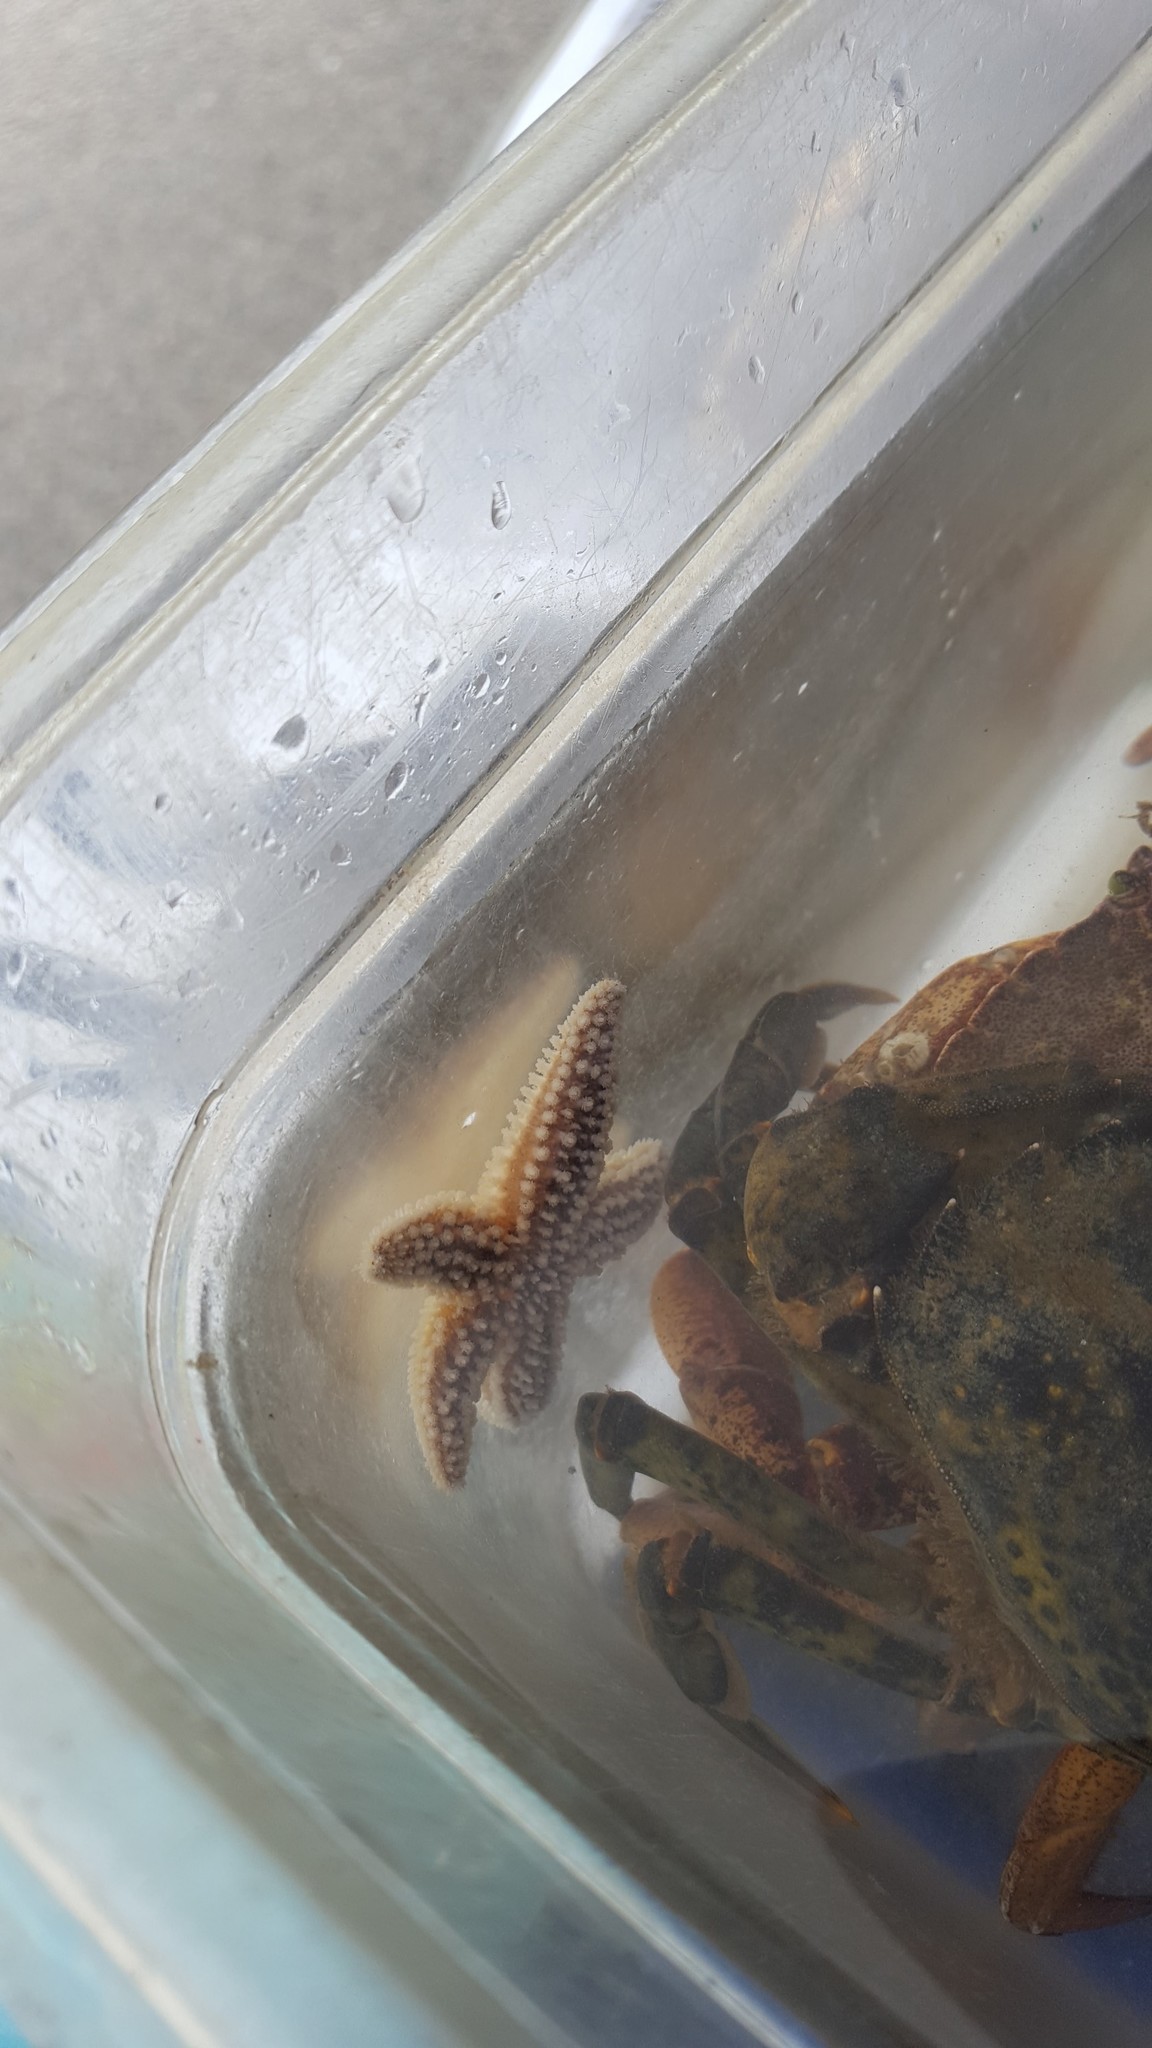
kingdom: Animalia
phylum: Echinodermata
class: Asteroidea
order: Forcipulatida
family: Asteriidae
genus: Asterias
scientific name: Asterias forbesi
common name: Forbes's sea star
